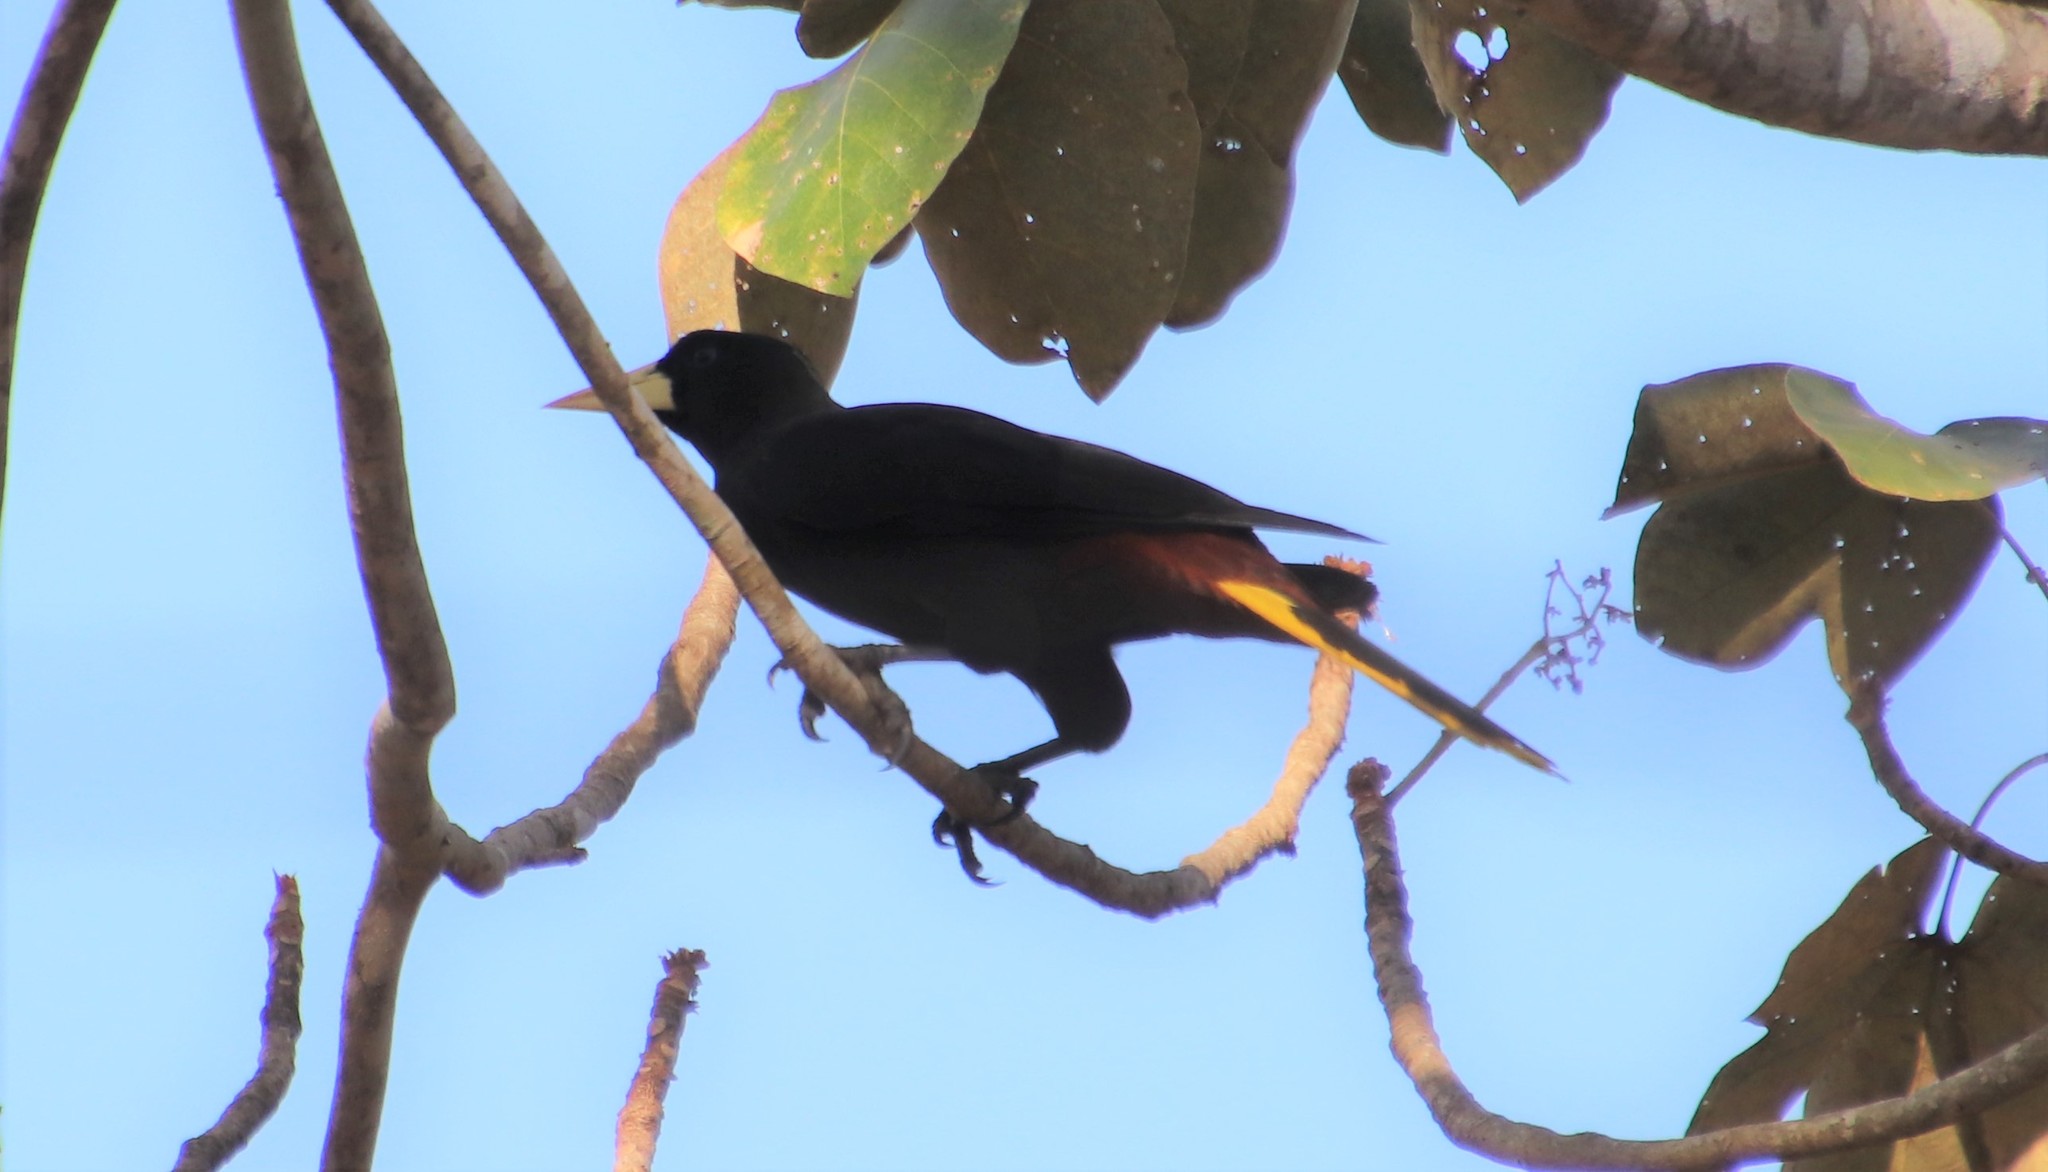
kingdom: Animalia
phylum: Chordata
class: Aves
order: Passeriformes
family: Icteridae
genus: Psarocolius
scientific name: Psarocolius decumanus
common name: Crested oropendola
